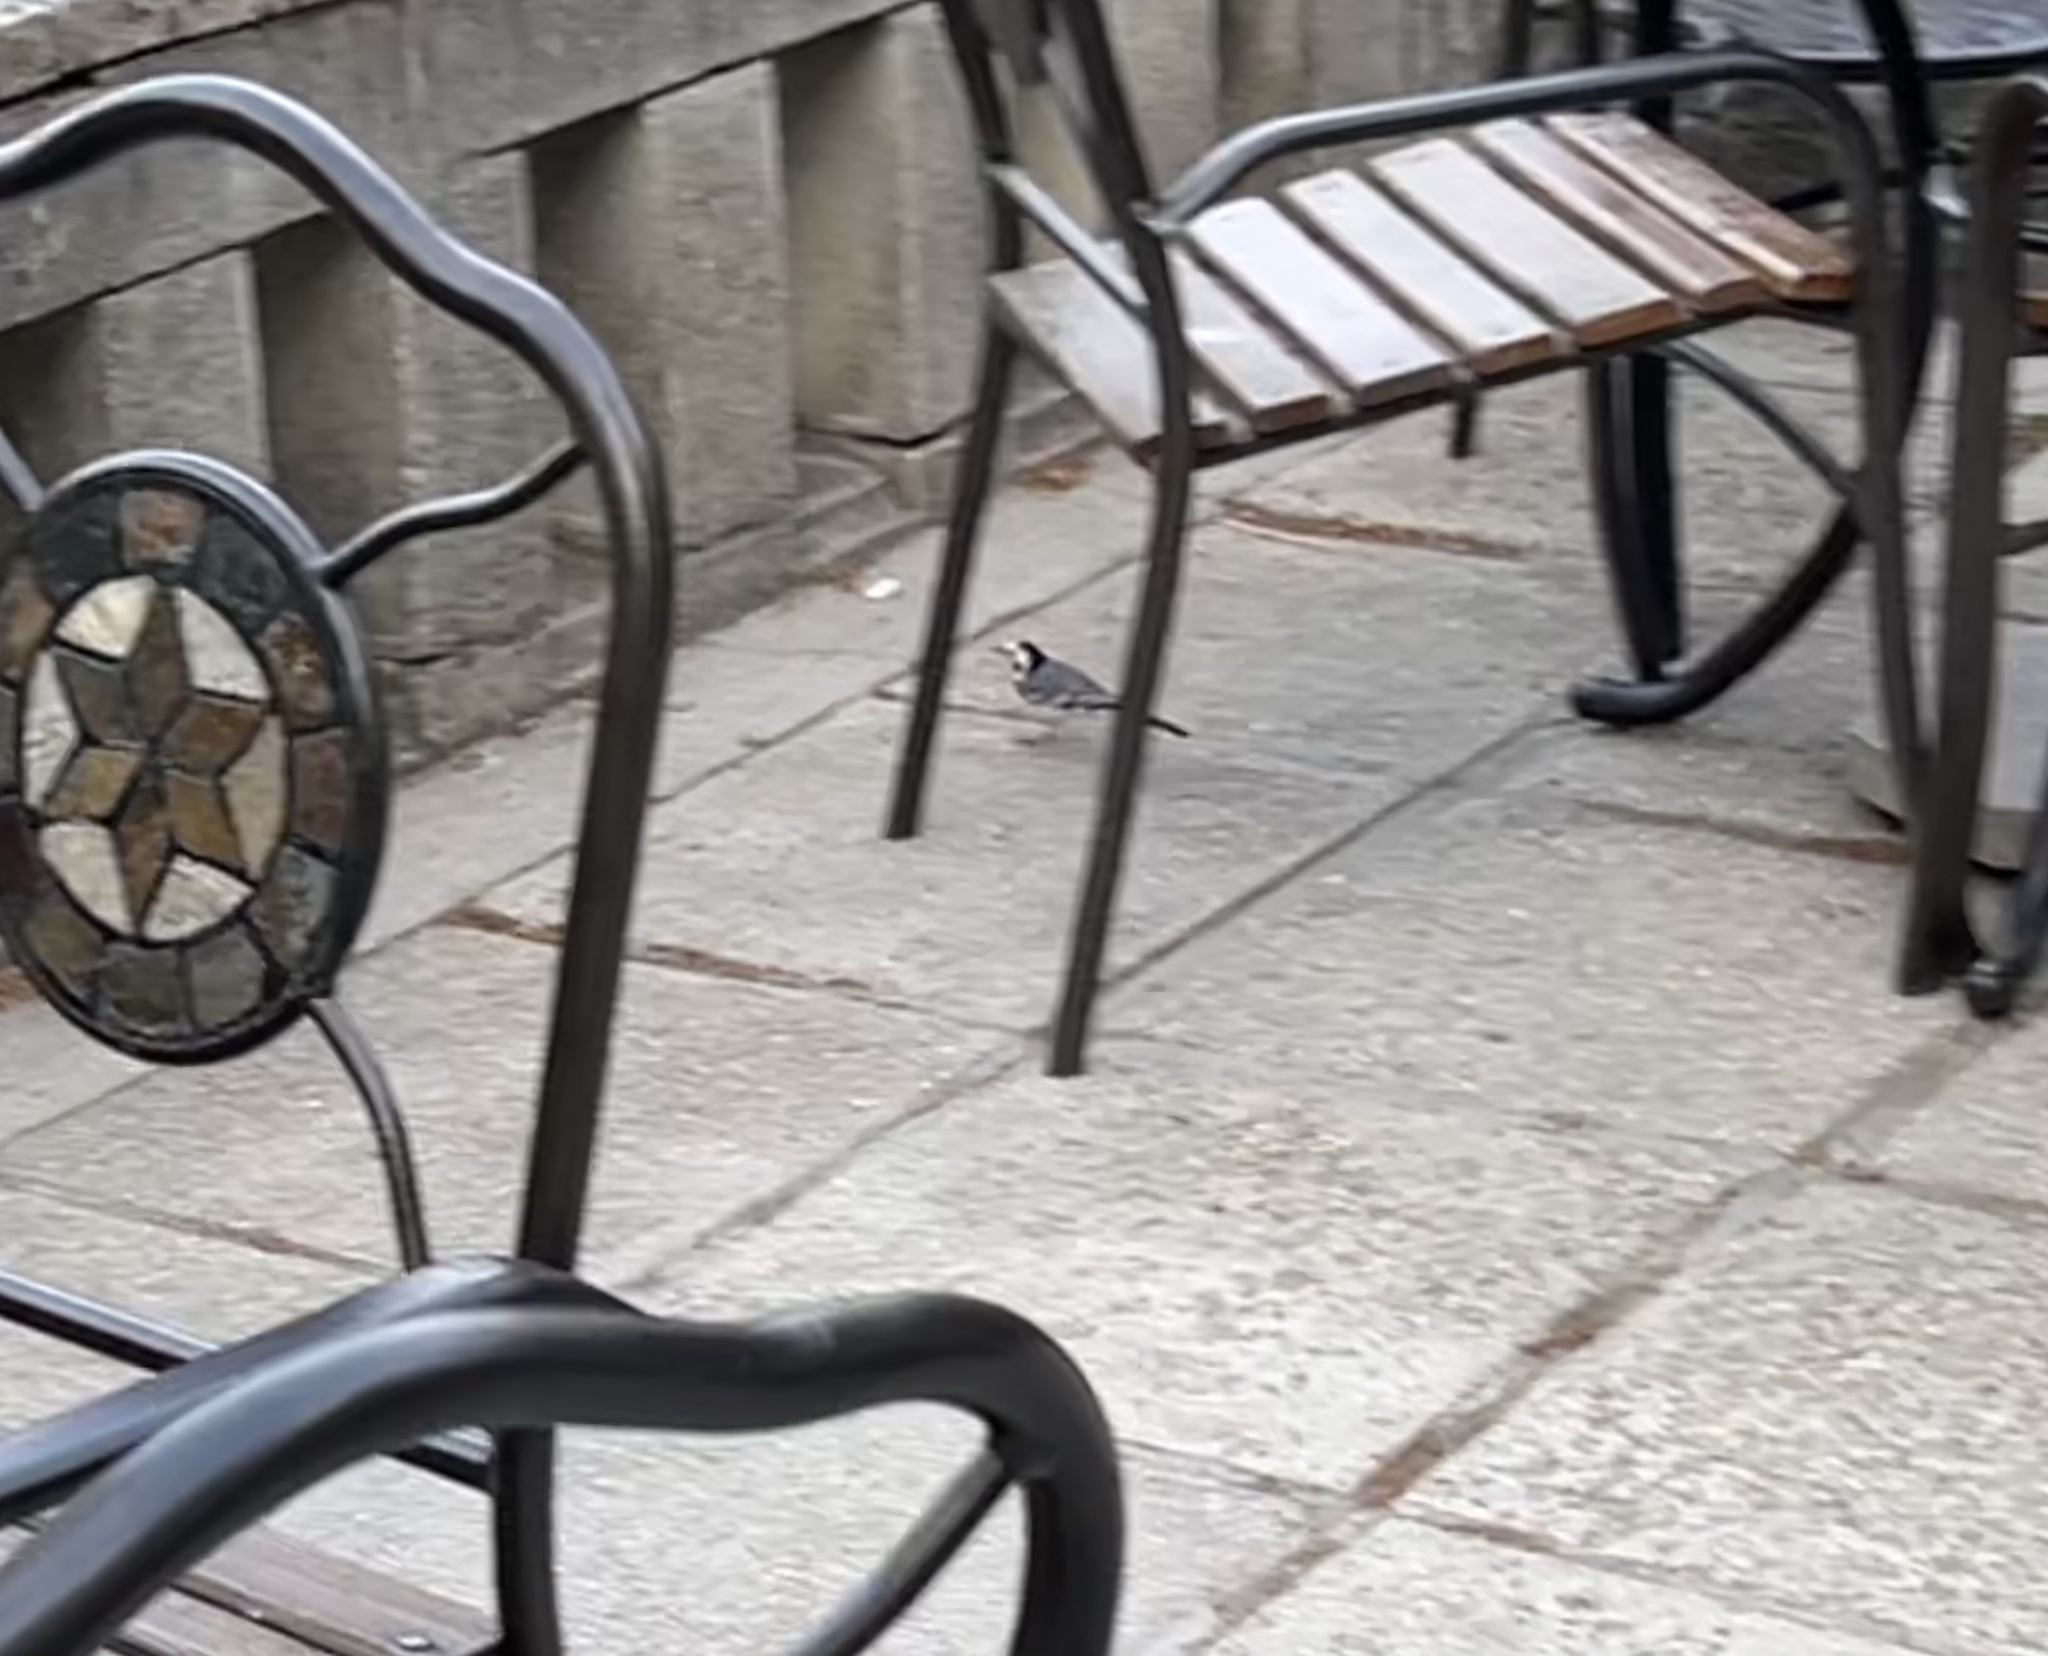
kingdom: Animalia
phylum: Chordata
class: Aves
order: Passeriformes
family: Motacillidae
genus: Motacilla
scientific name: Motacilla alba
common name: White wagtail
